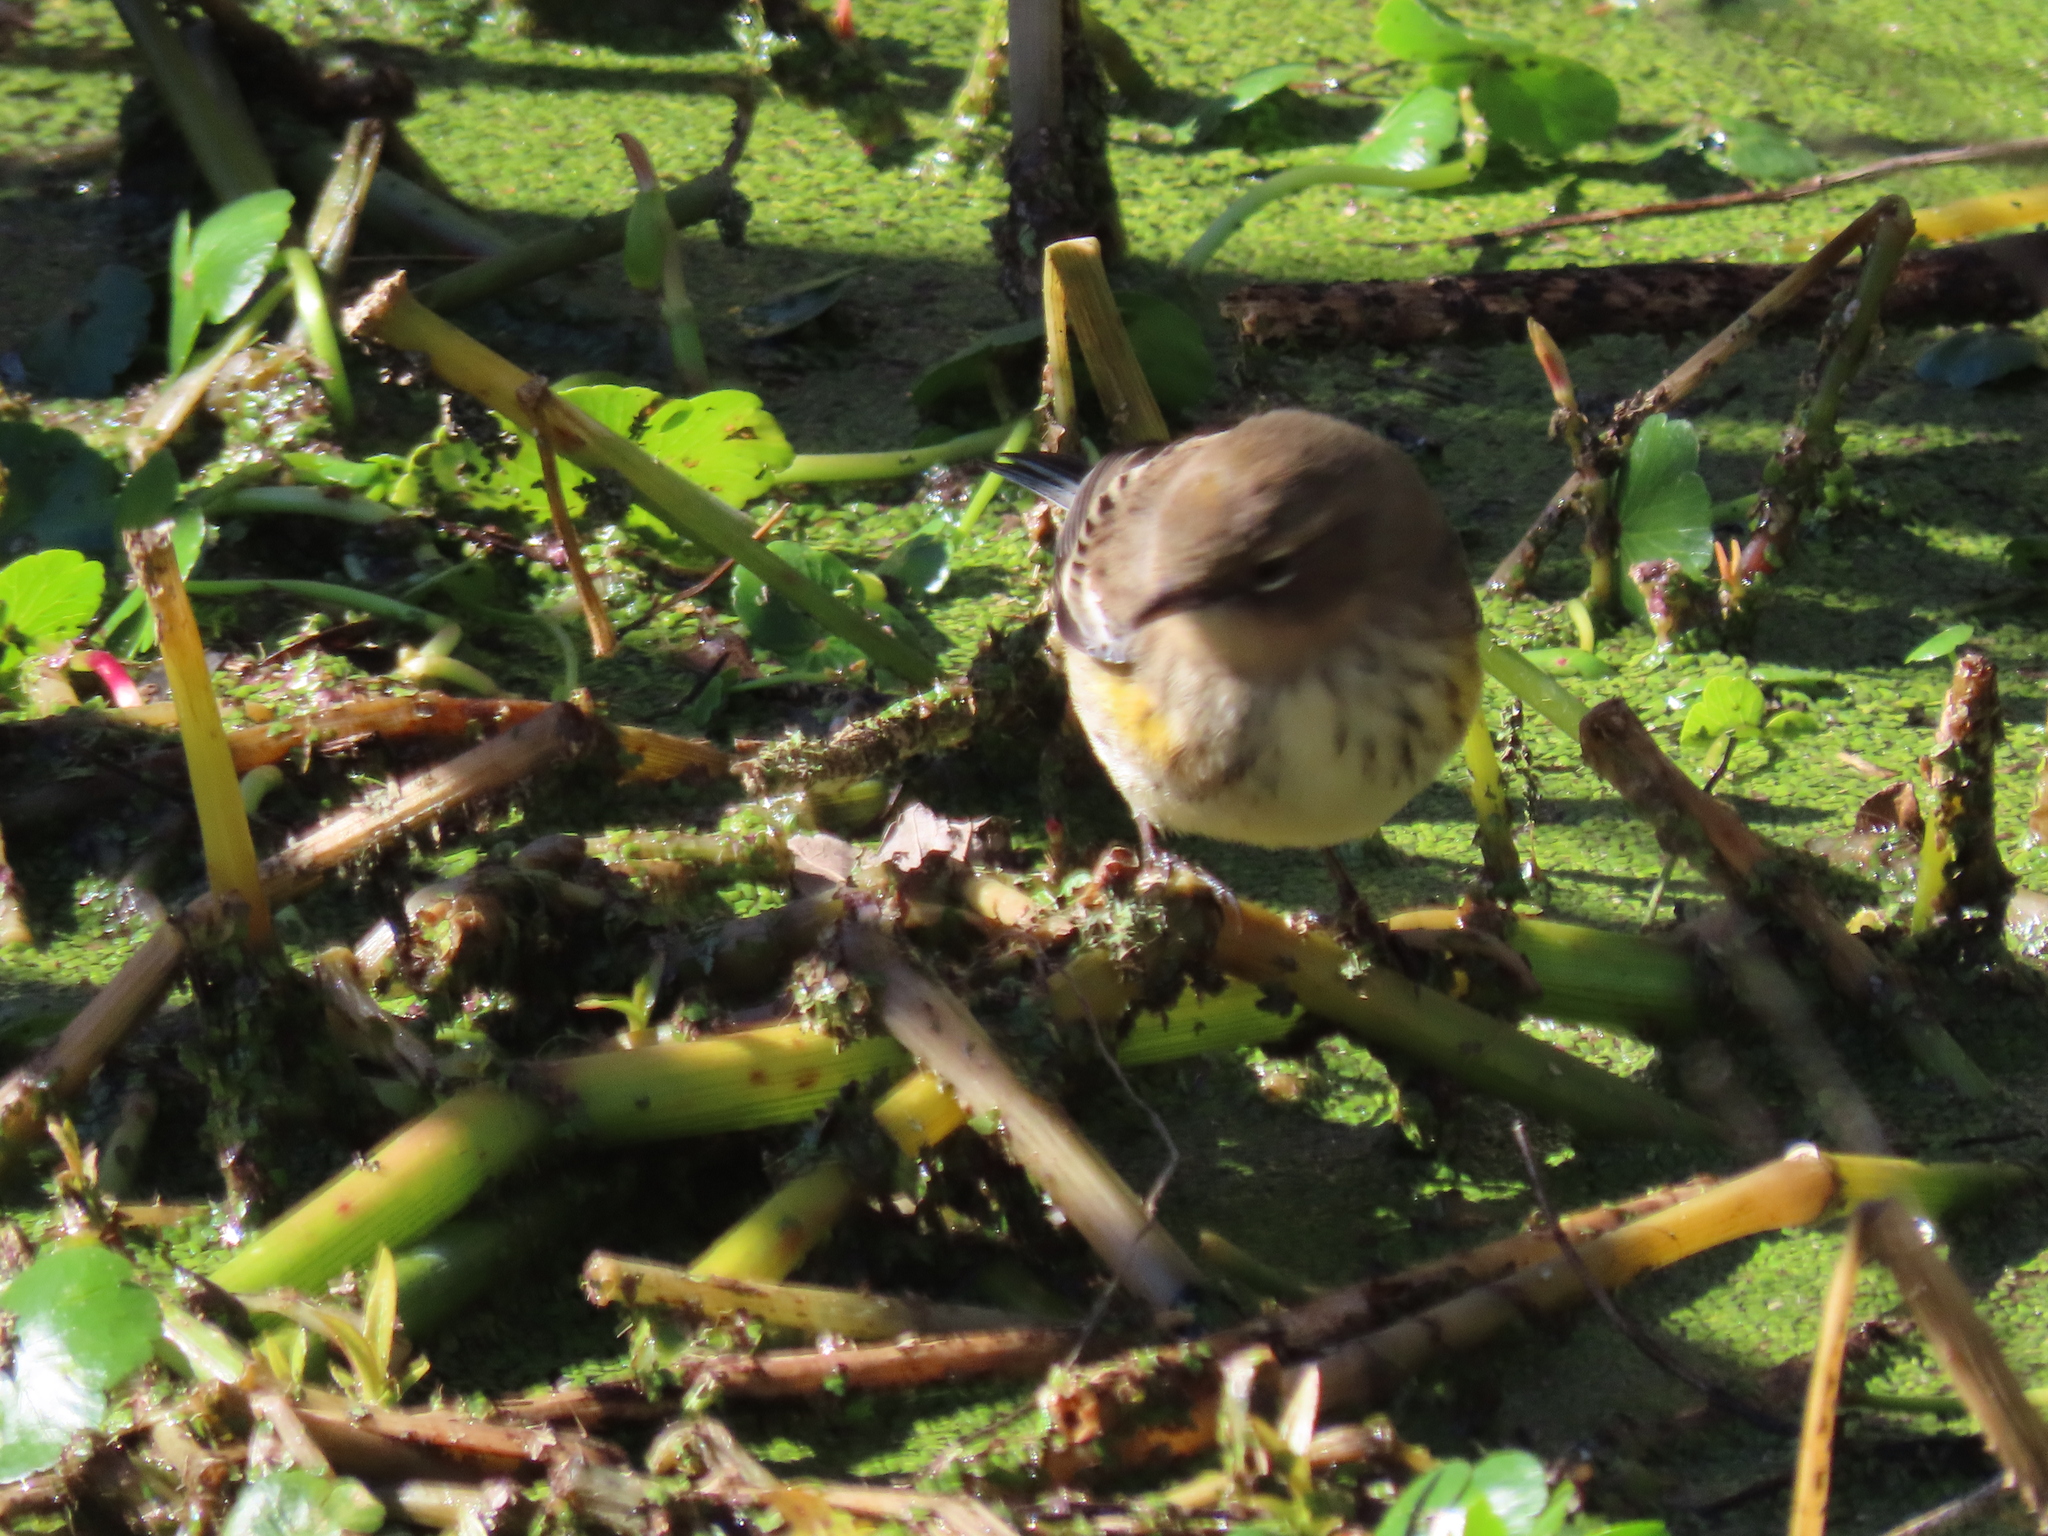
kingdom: Animalia
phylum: Chordata
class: Aves
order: Passeriformes
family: Parulidae
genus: Setophaga
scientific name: Setophaga coronata
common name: Myrtle warbler
